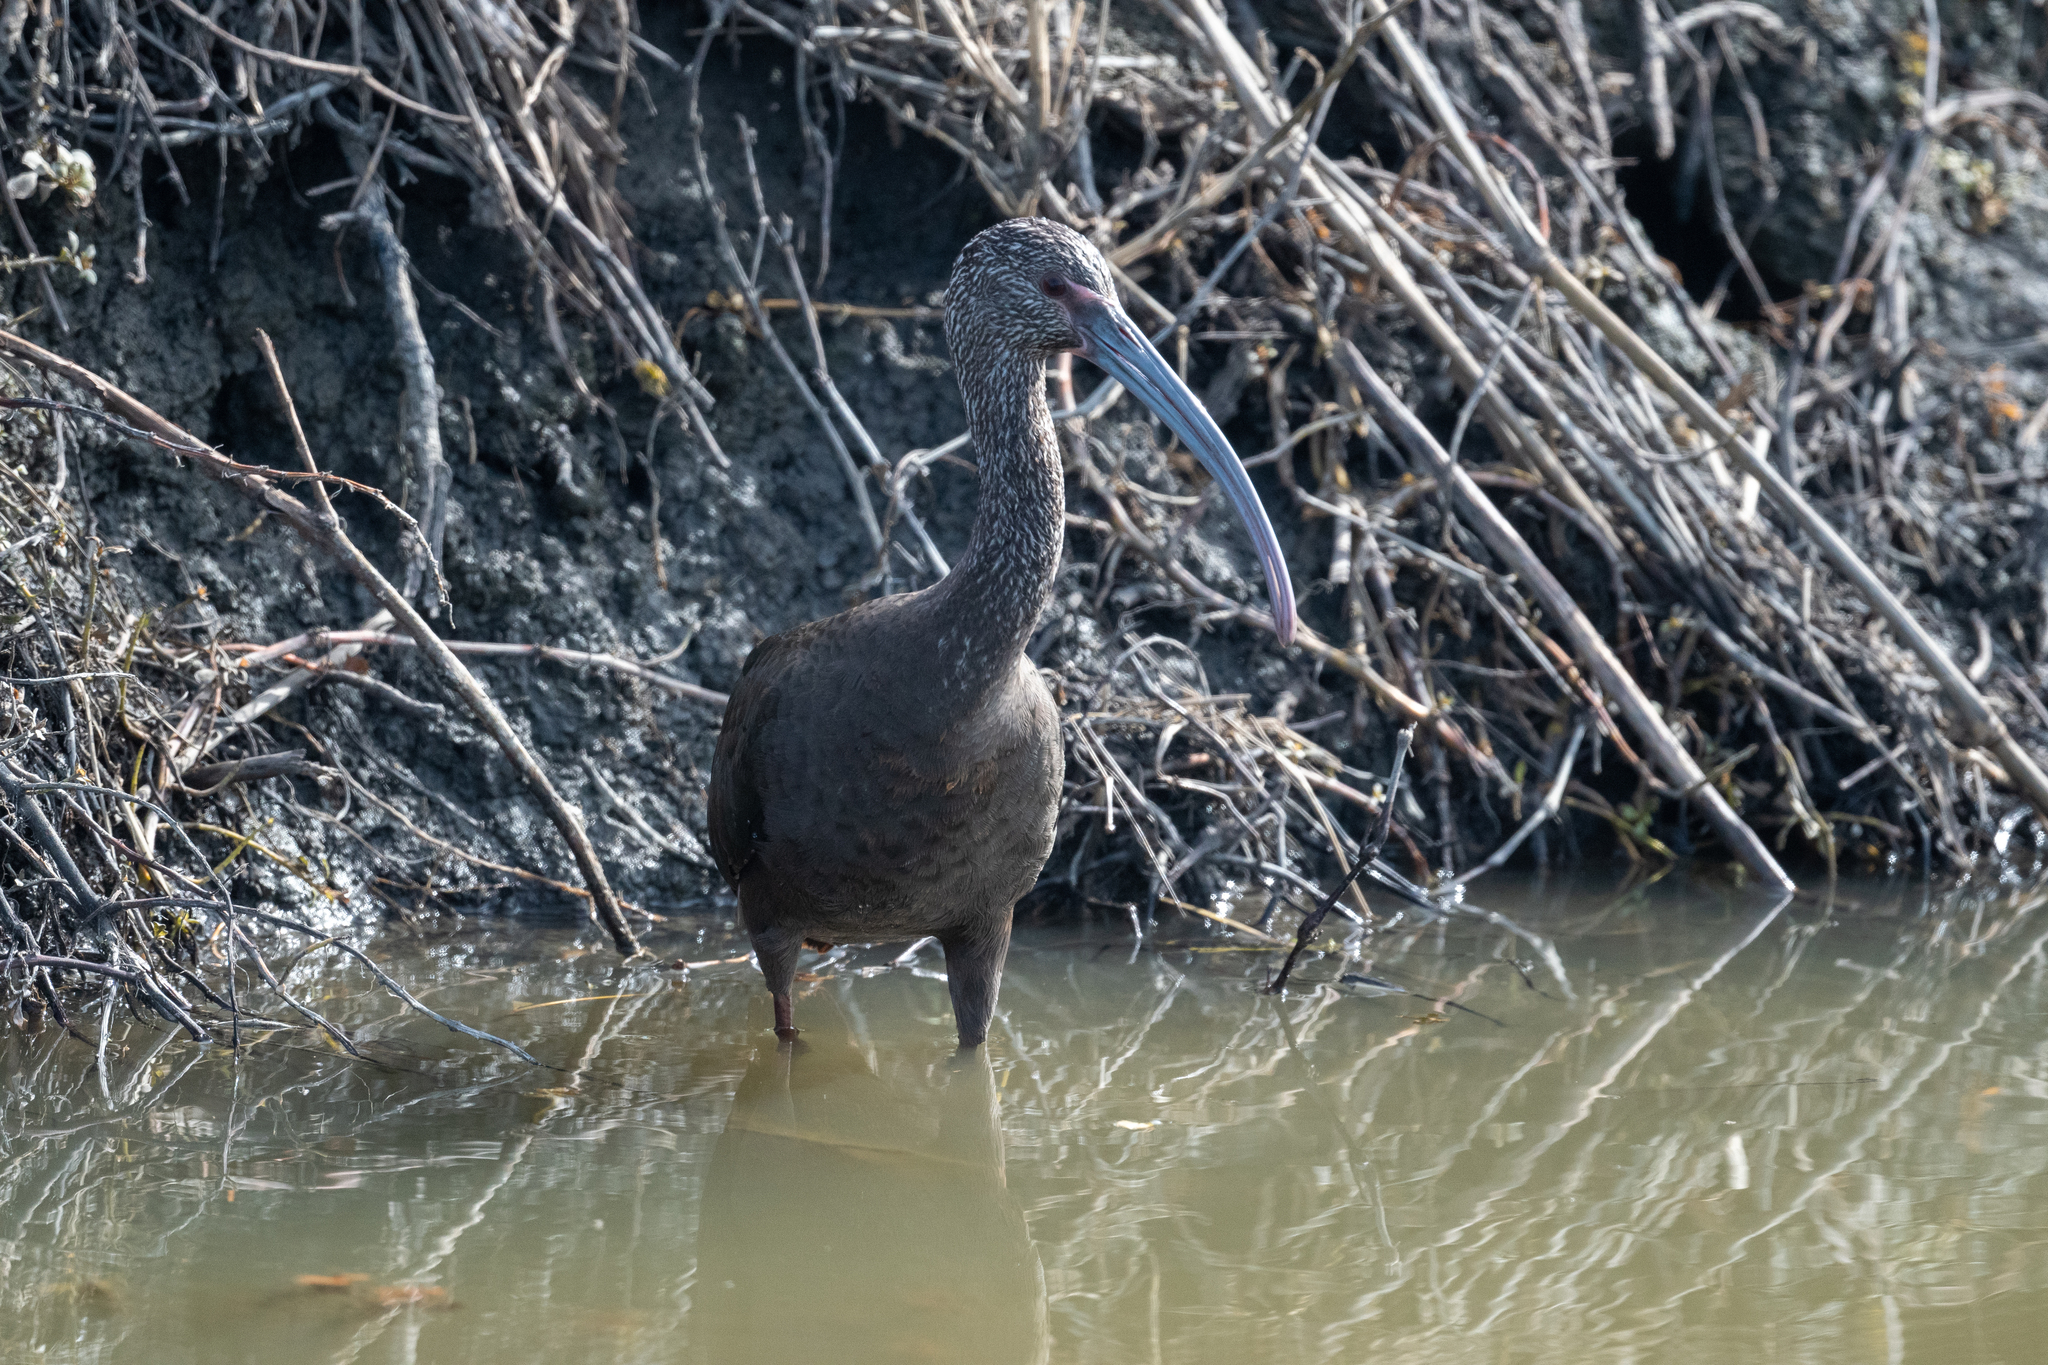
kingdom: Animalia
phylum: Chordata
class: Aves
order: Pelecaniformes
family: Threskiornithidae
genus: Plegadis
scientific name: Plegadis chihi
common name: White-faced ibis
